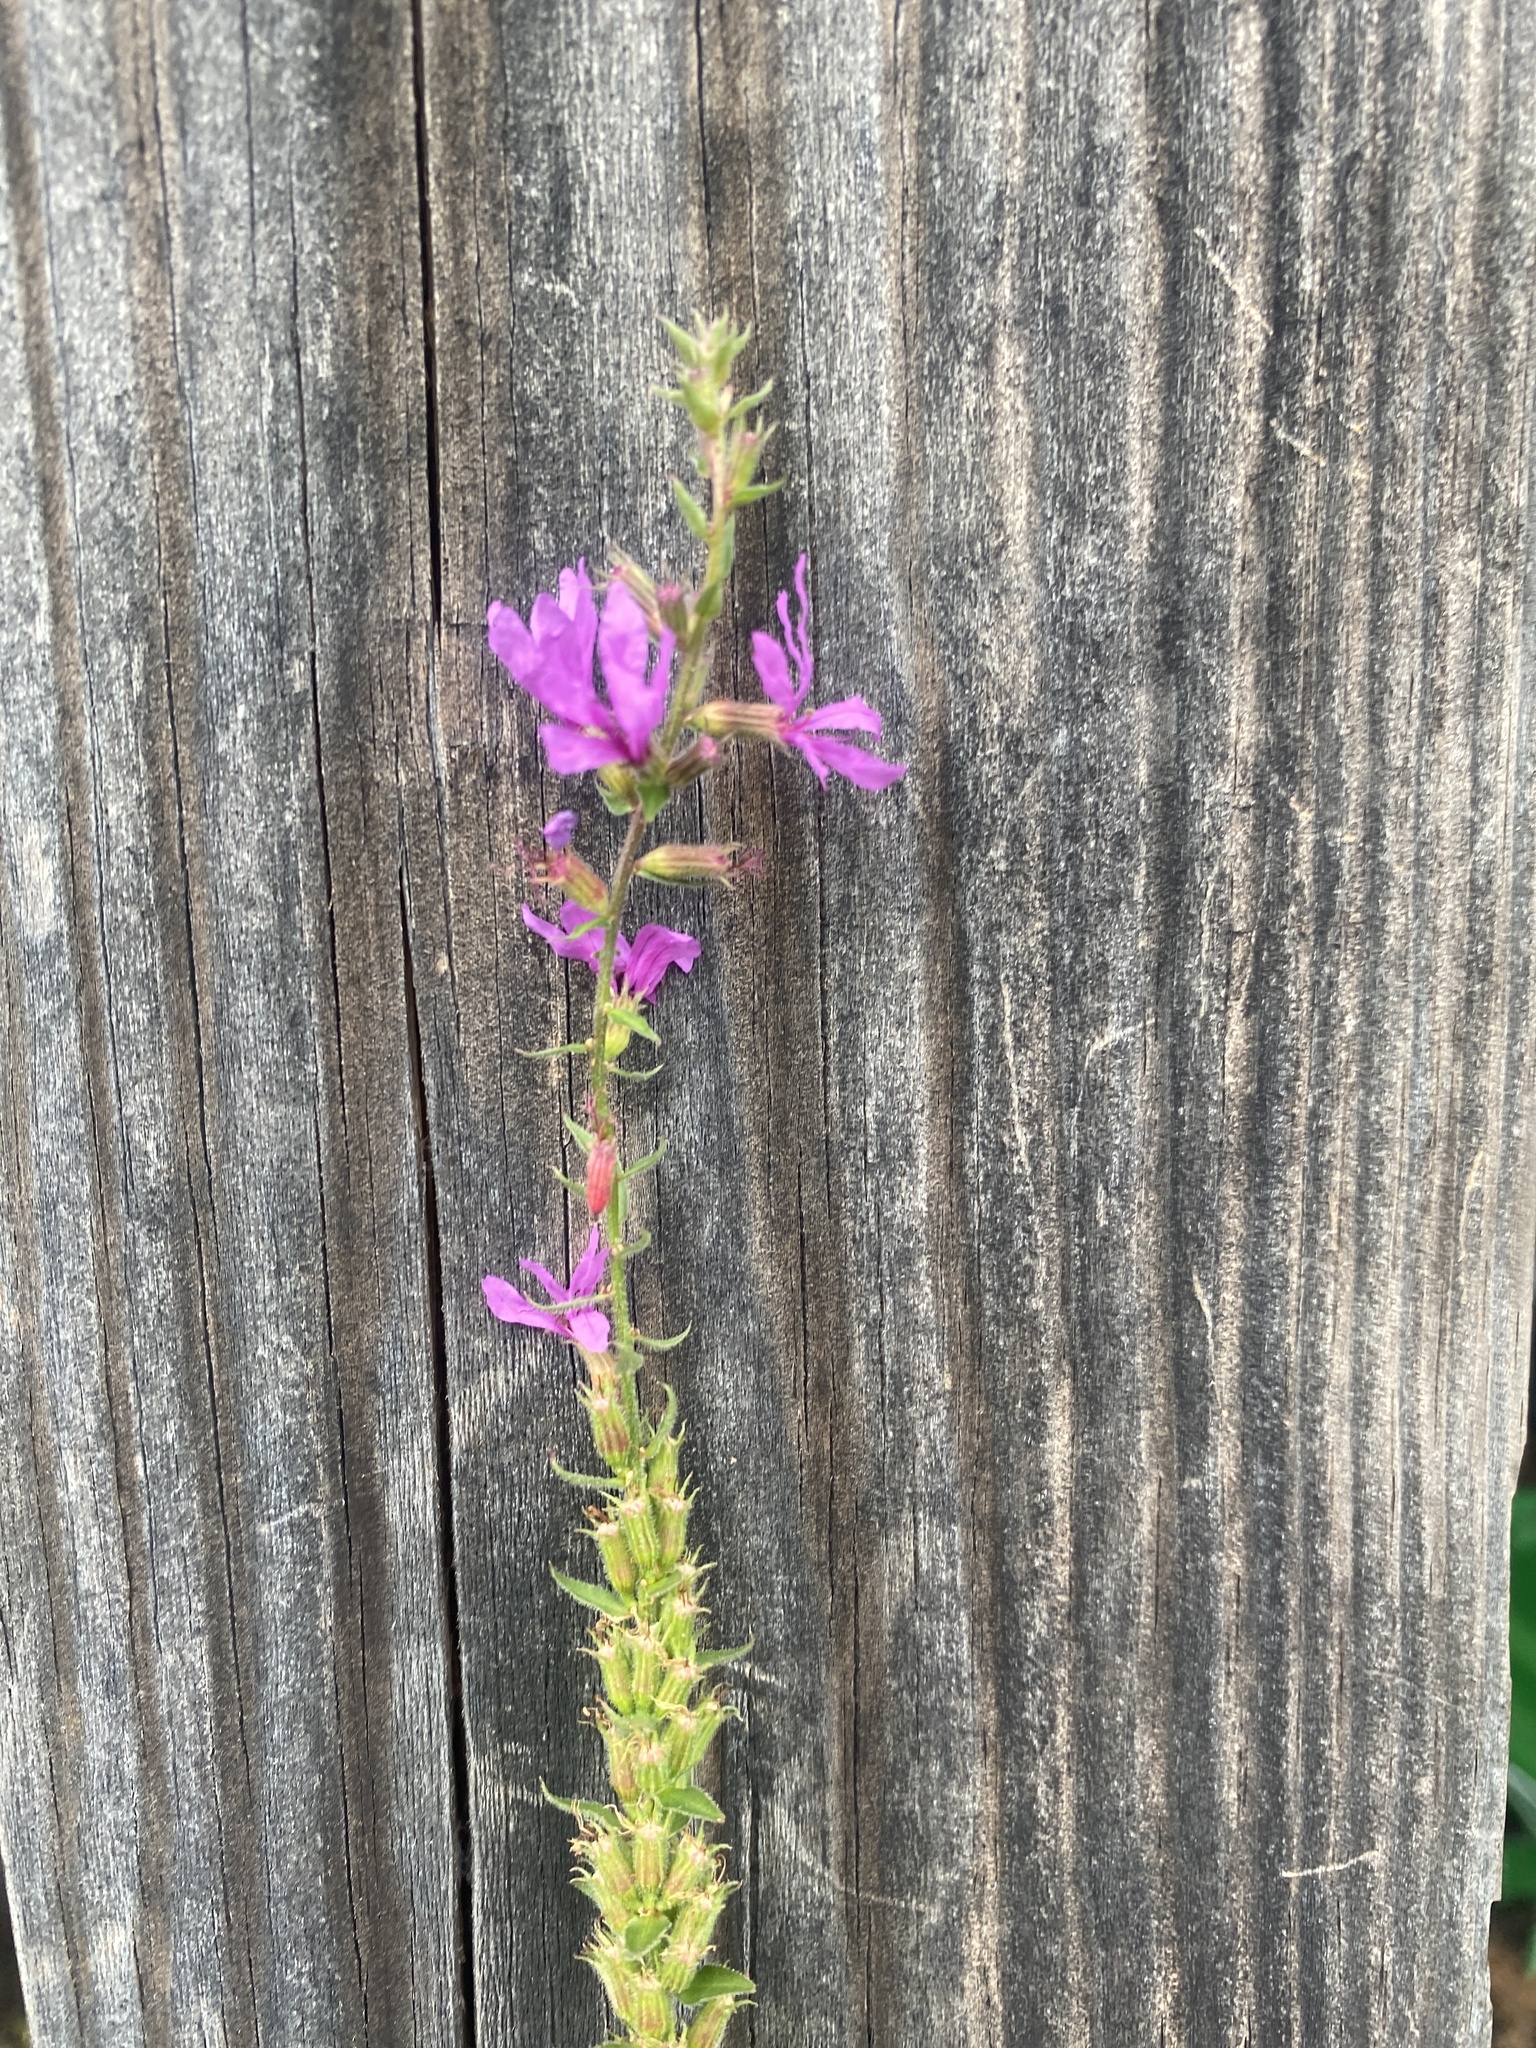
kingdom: Plantae
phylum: Tracheophyta
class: Magnoliopsida
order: Myrtales
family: Lythraceae
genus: Lythrum
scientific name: Lythrum salicaria
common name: Purple loosestrife
